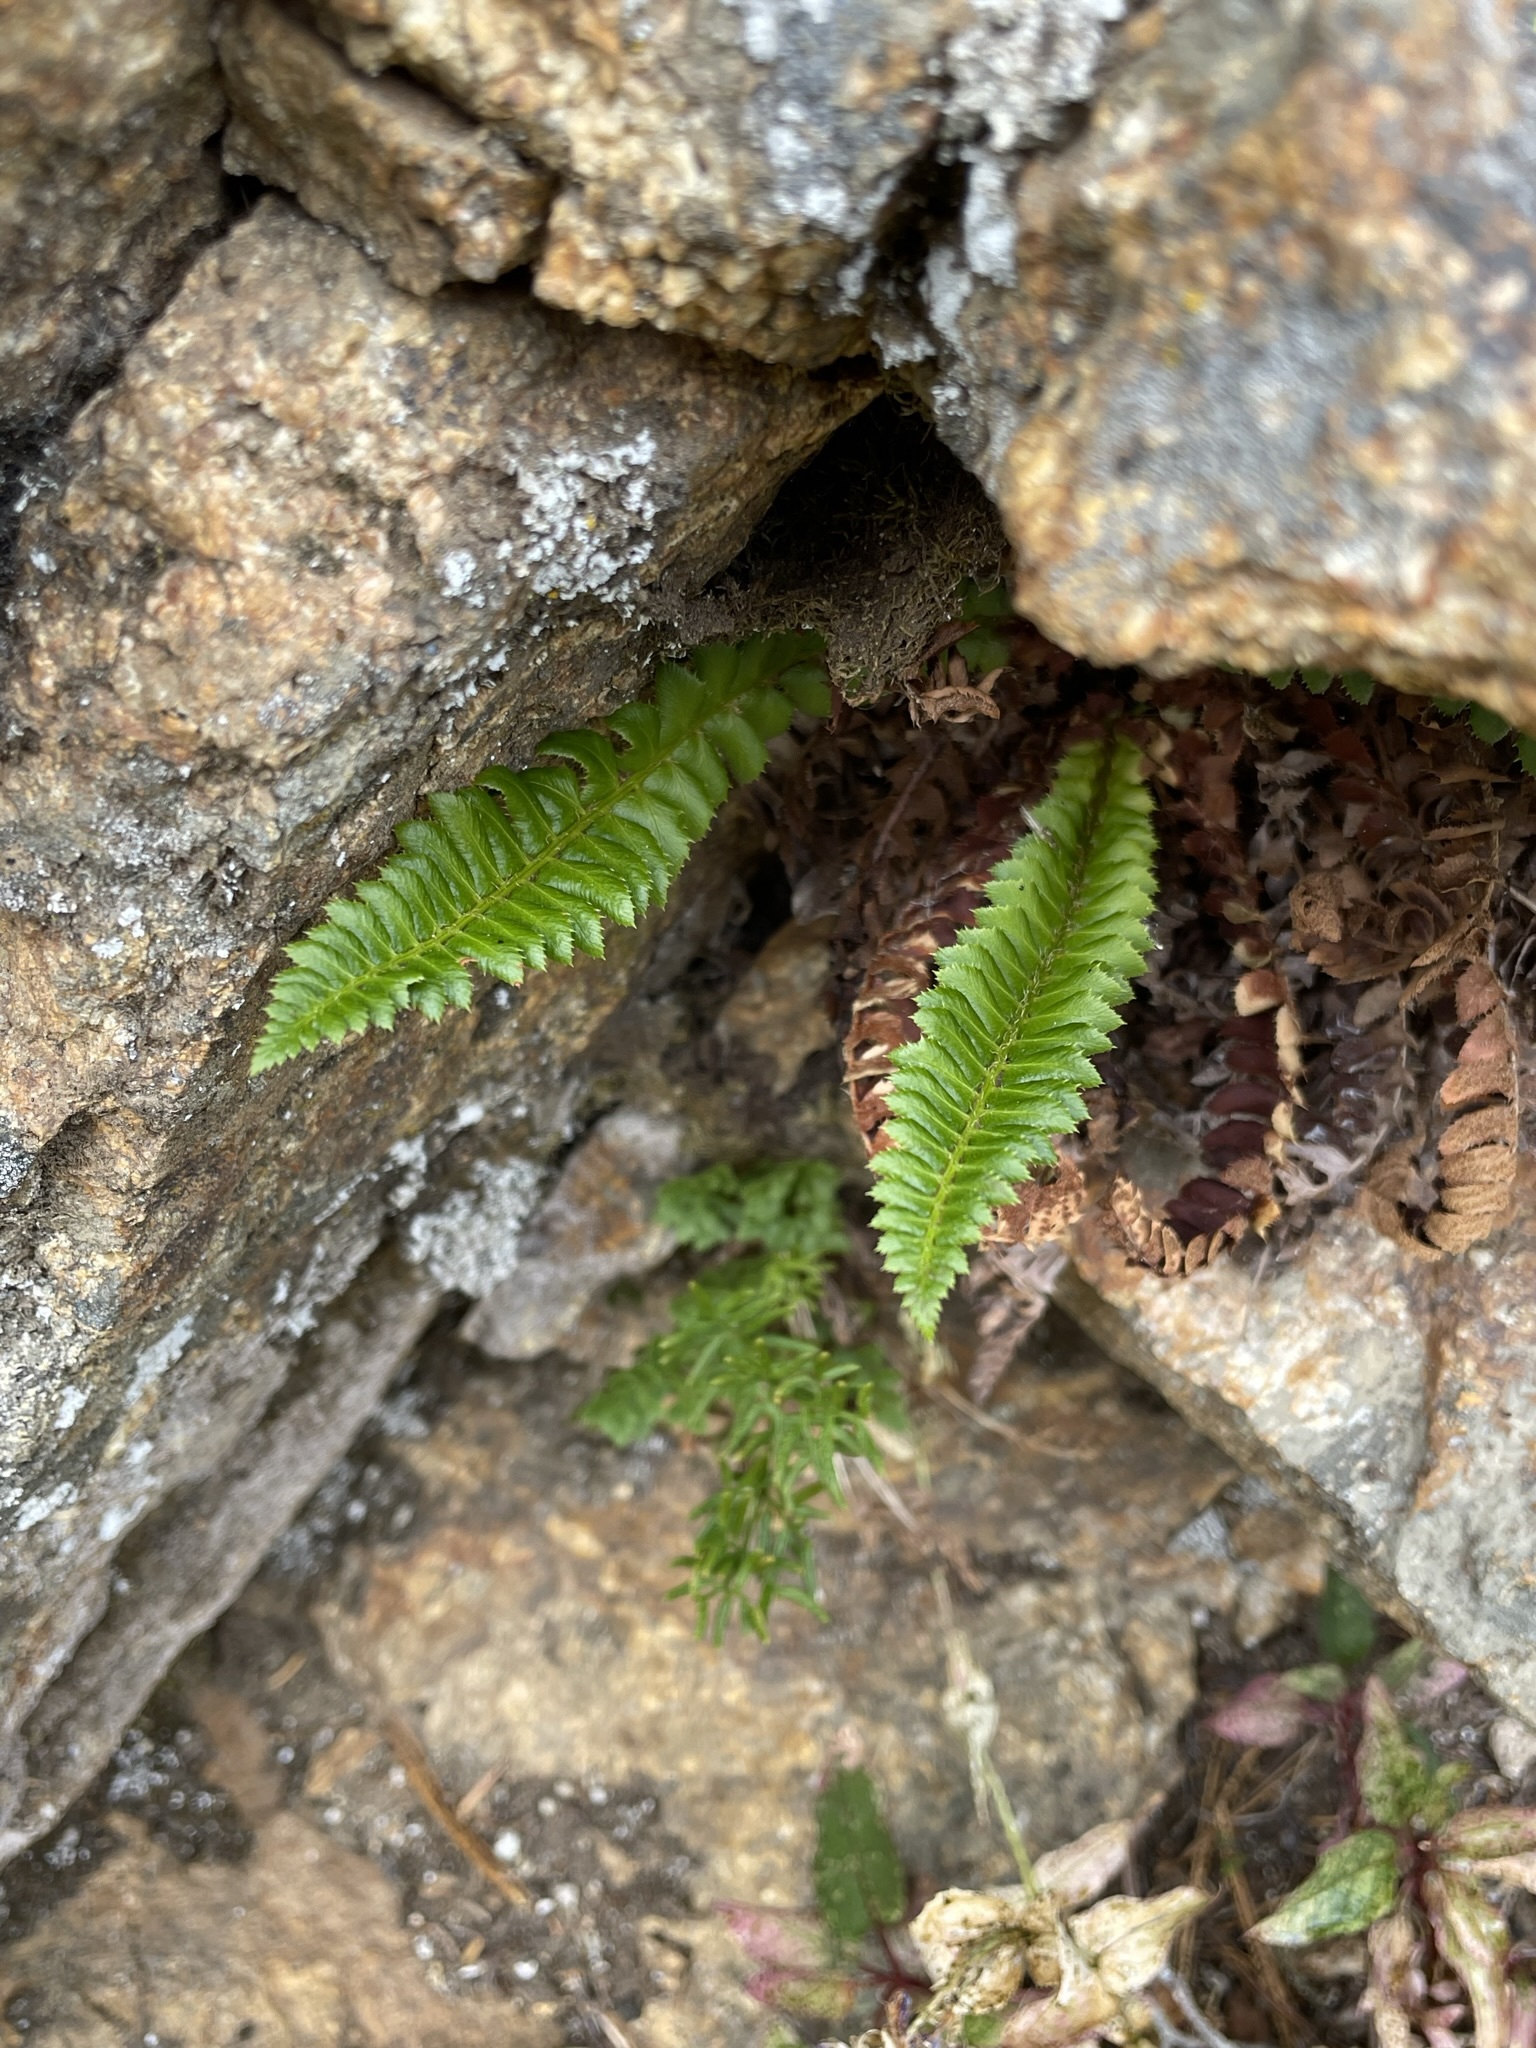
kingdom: Plantae
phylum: Tracheophyta
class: Polypodiopsida
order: Polypodiales
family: Dryopteridaceae
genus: Polystichum
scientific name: Polystichum lonchitis
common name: Holly fern
